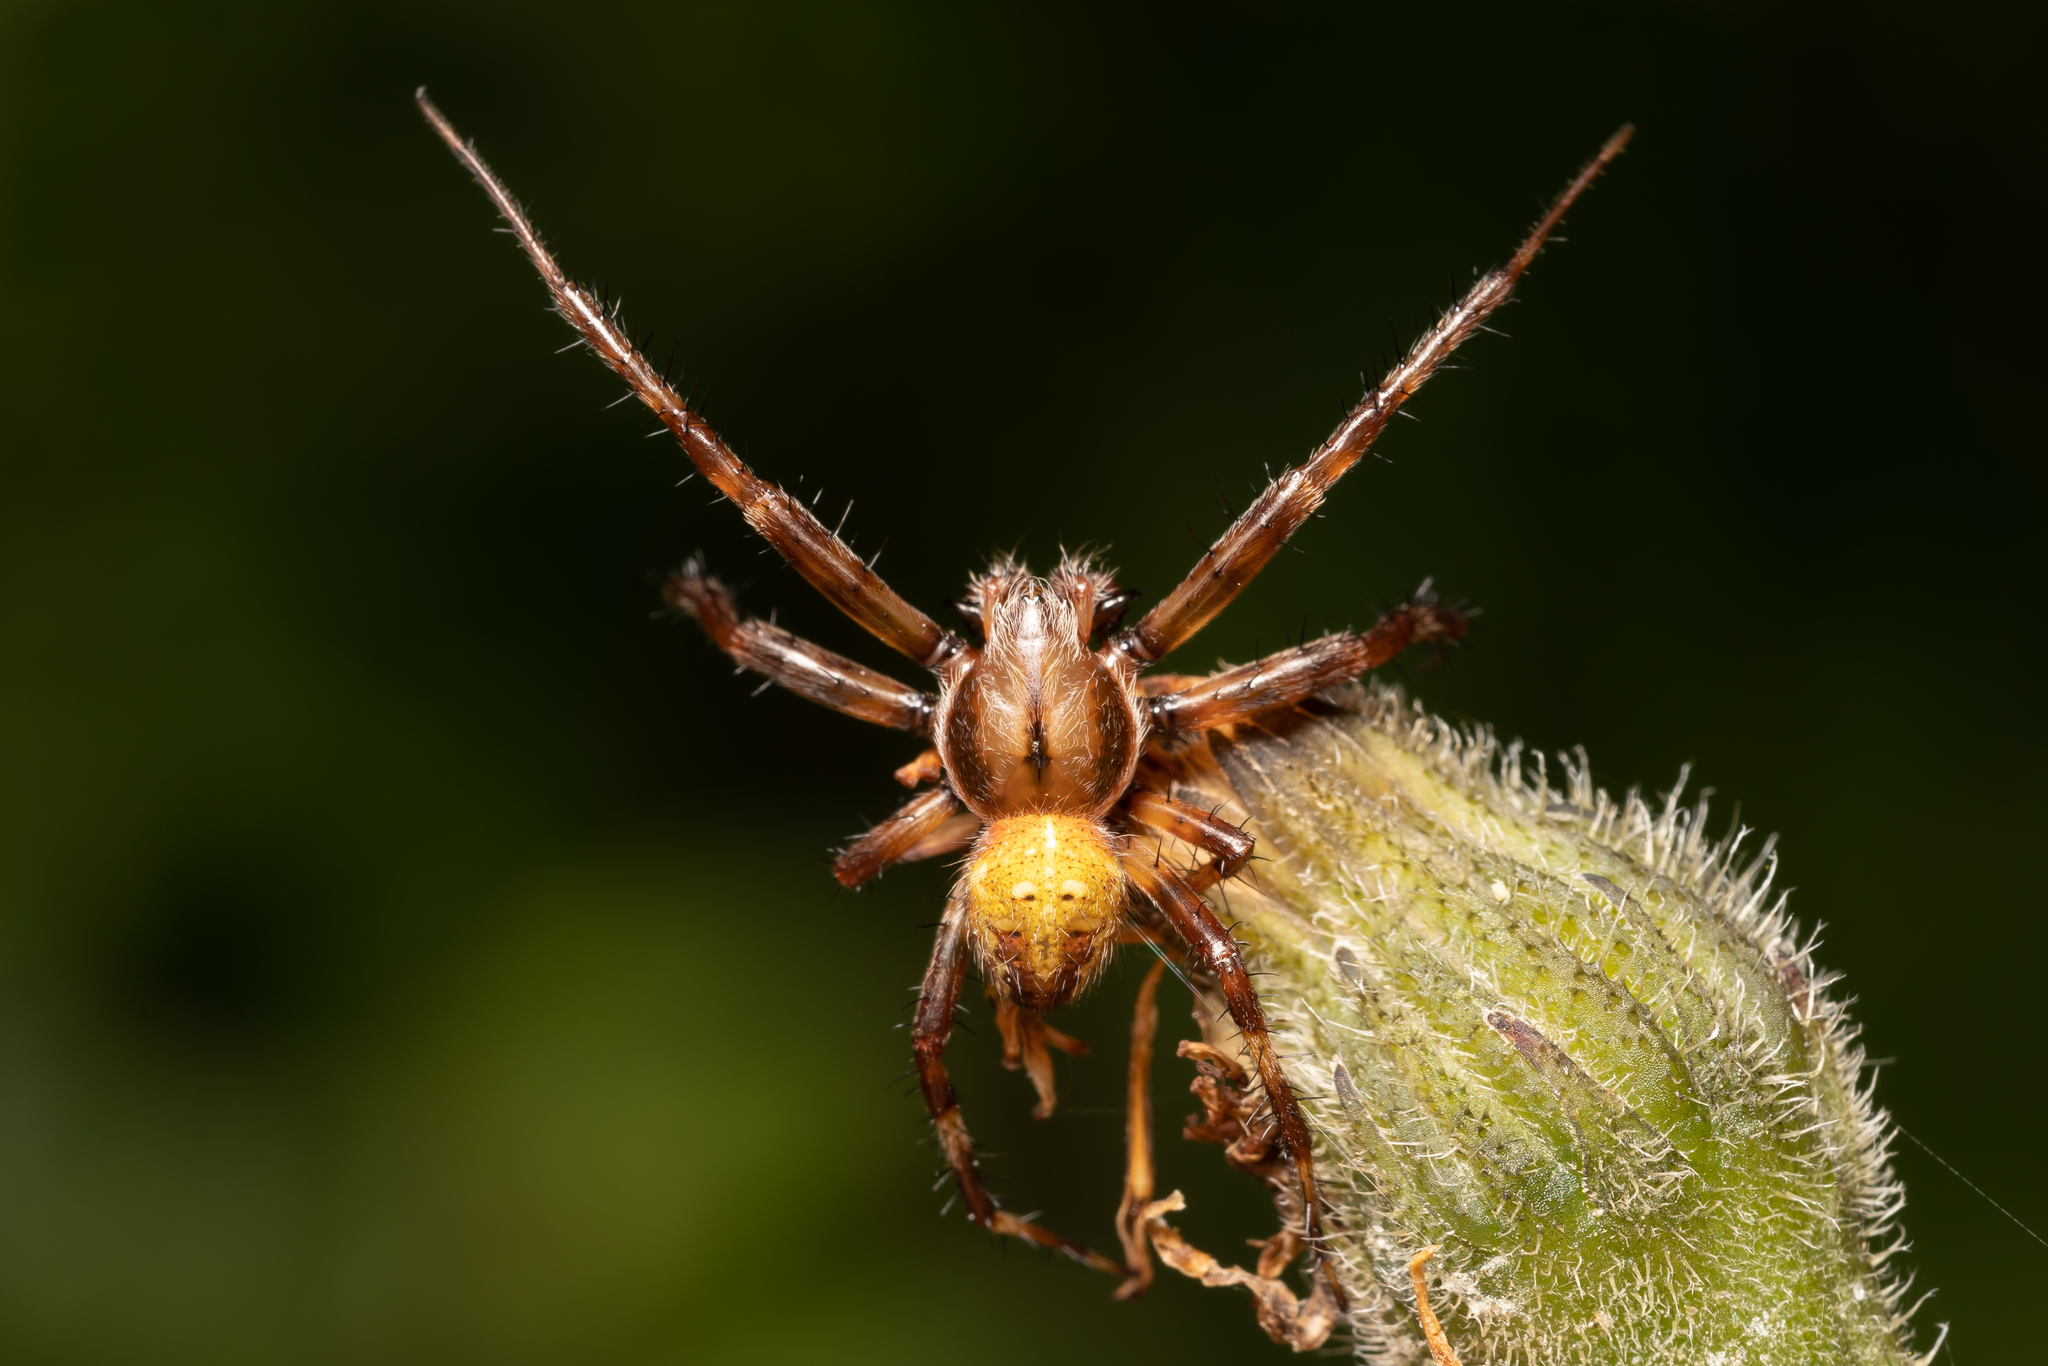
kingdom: Animalia
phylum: Arthropoda
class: Arachnida
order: Araneae
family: Araneidae
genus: Araneus
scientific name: Araneus quadratus
